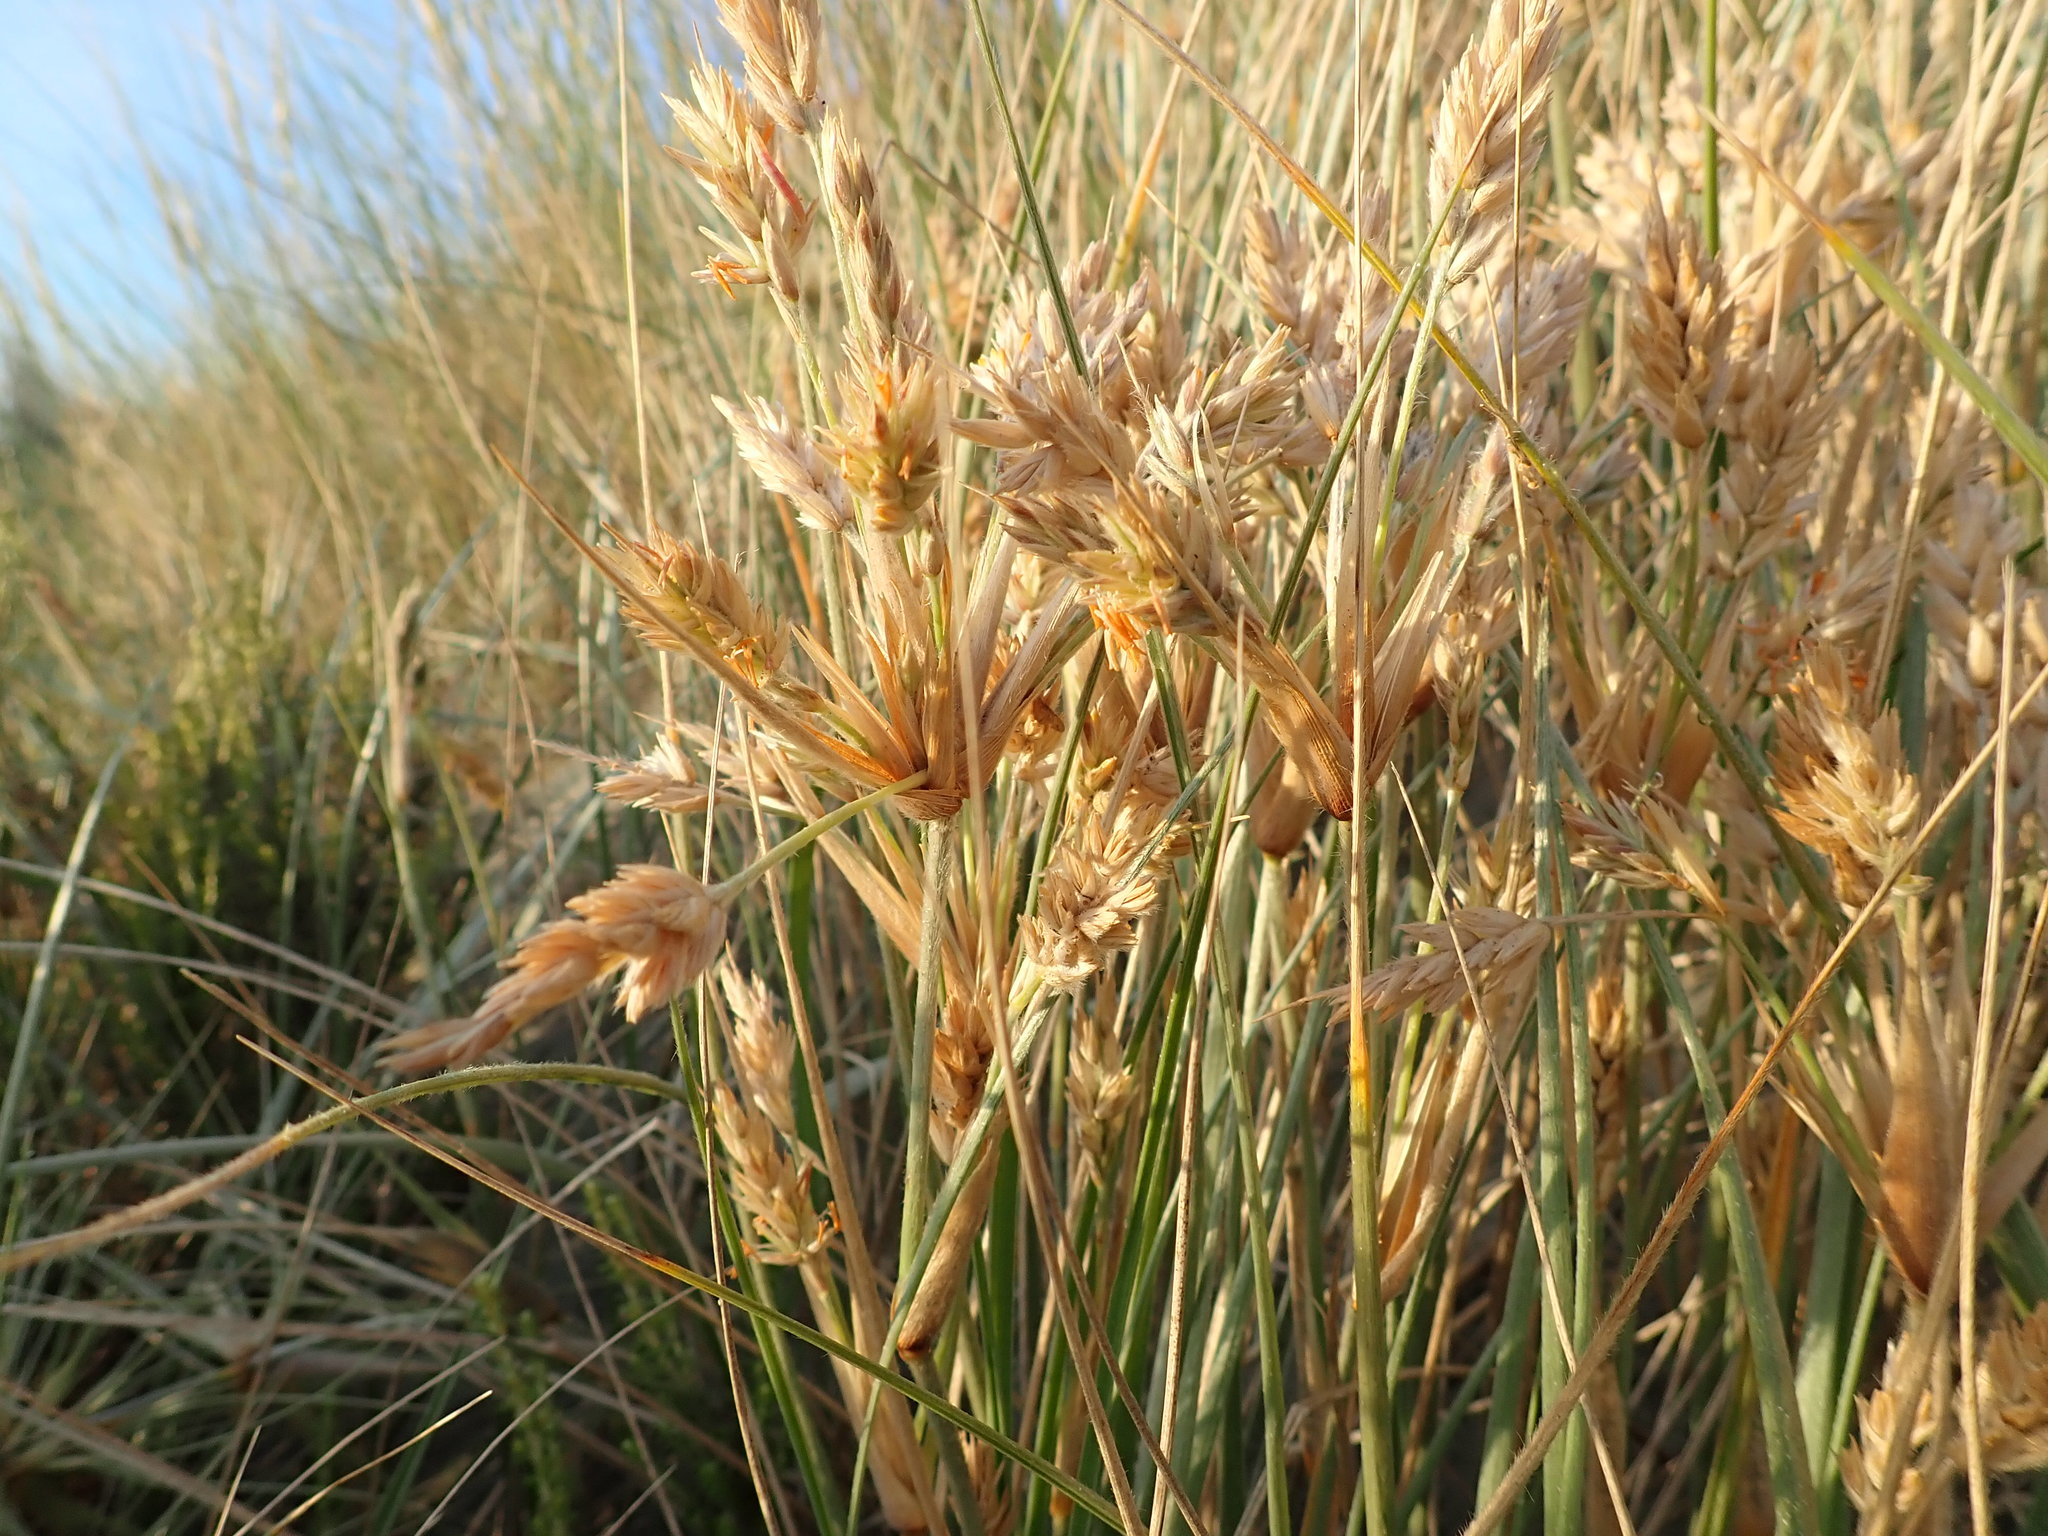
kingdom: Plantae
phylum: Tracheophyta
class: Liliopsida
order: Poales
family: Poaceae
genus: Spinifex
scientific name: Spinifex sericeus
